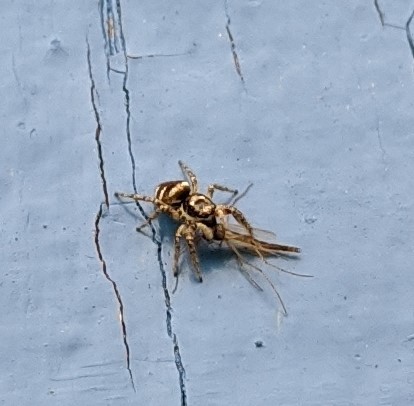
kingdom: Animalia
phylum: Arthropoda
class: Arachnida
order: Araneae
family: Salticidae
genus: Salticus
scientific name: Salticus scenicus
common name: Zebra jumper
